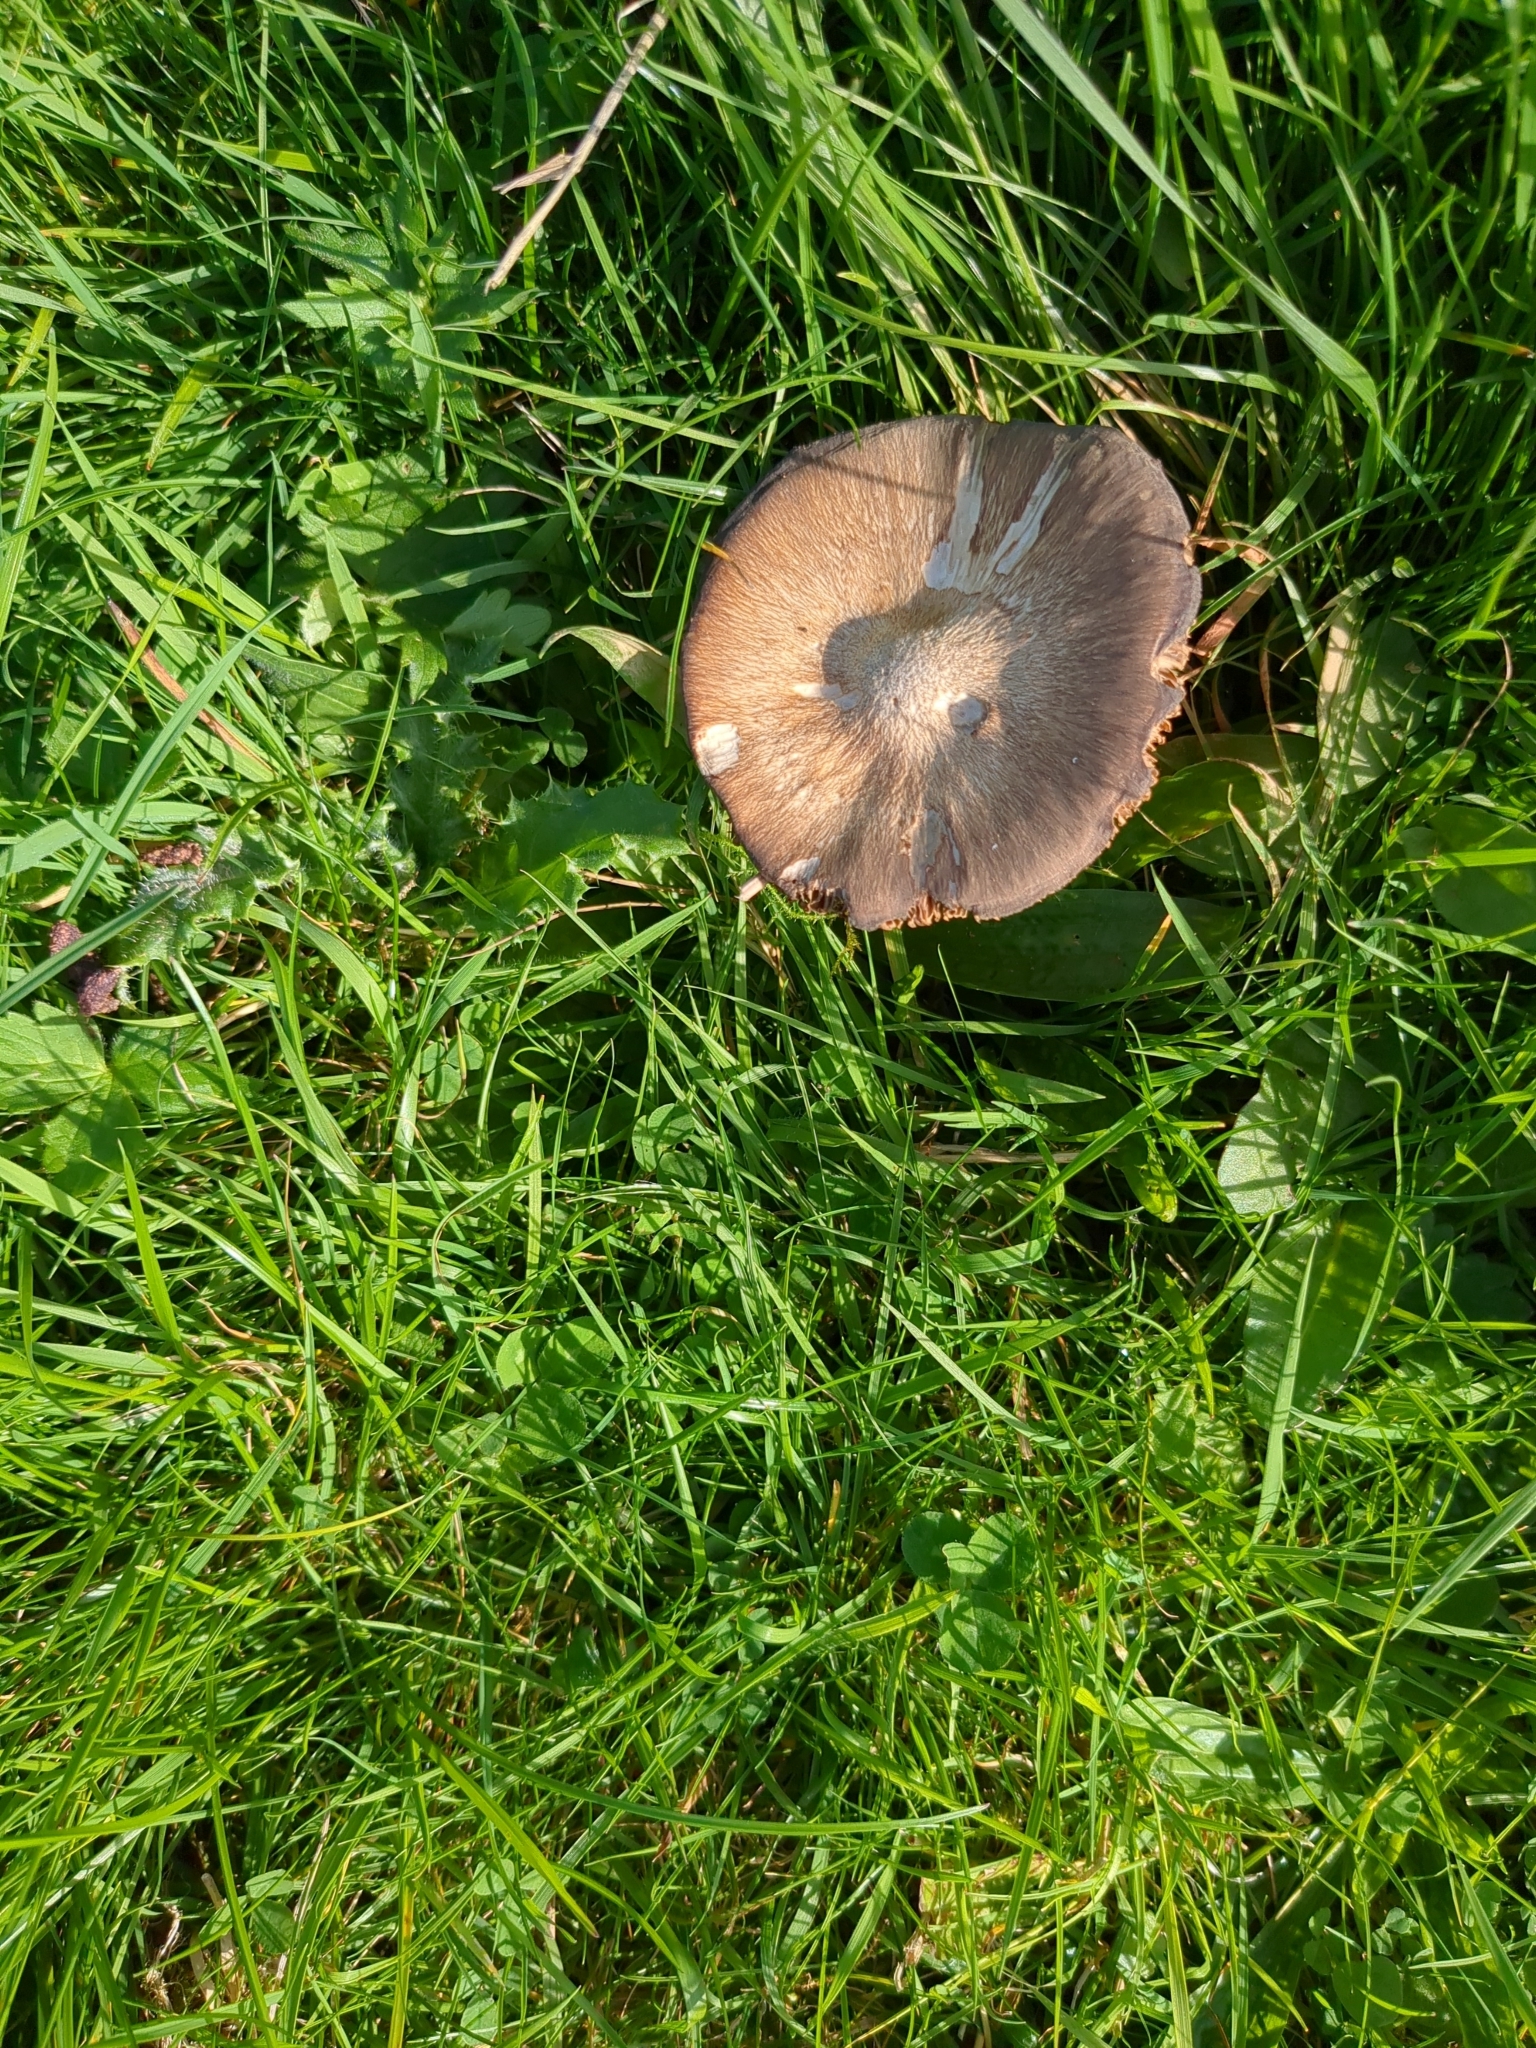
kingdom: Fungi
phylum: Basidiomycota
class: Agaricomycetes
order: Agaricales
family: Entolomataceae
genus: Entoloma
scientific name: Entoloma porphyrophaeum
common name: Lilac pinkgill
